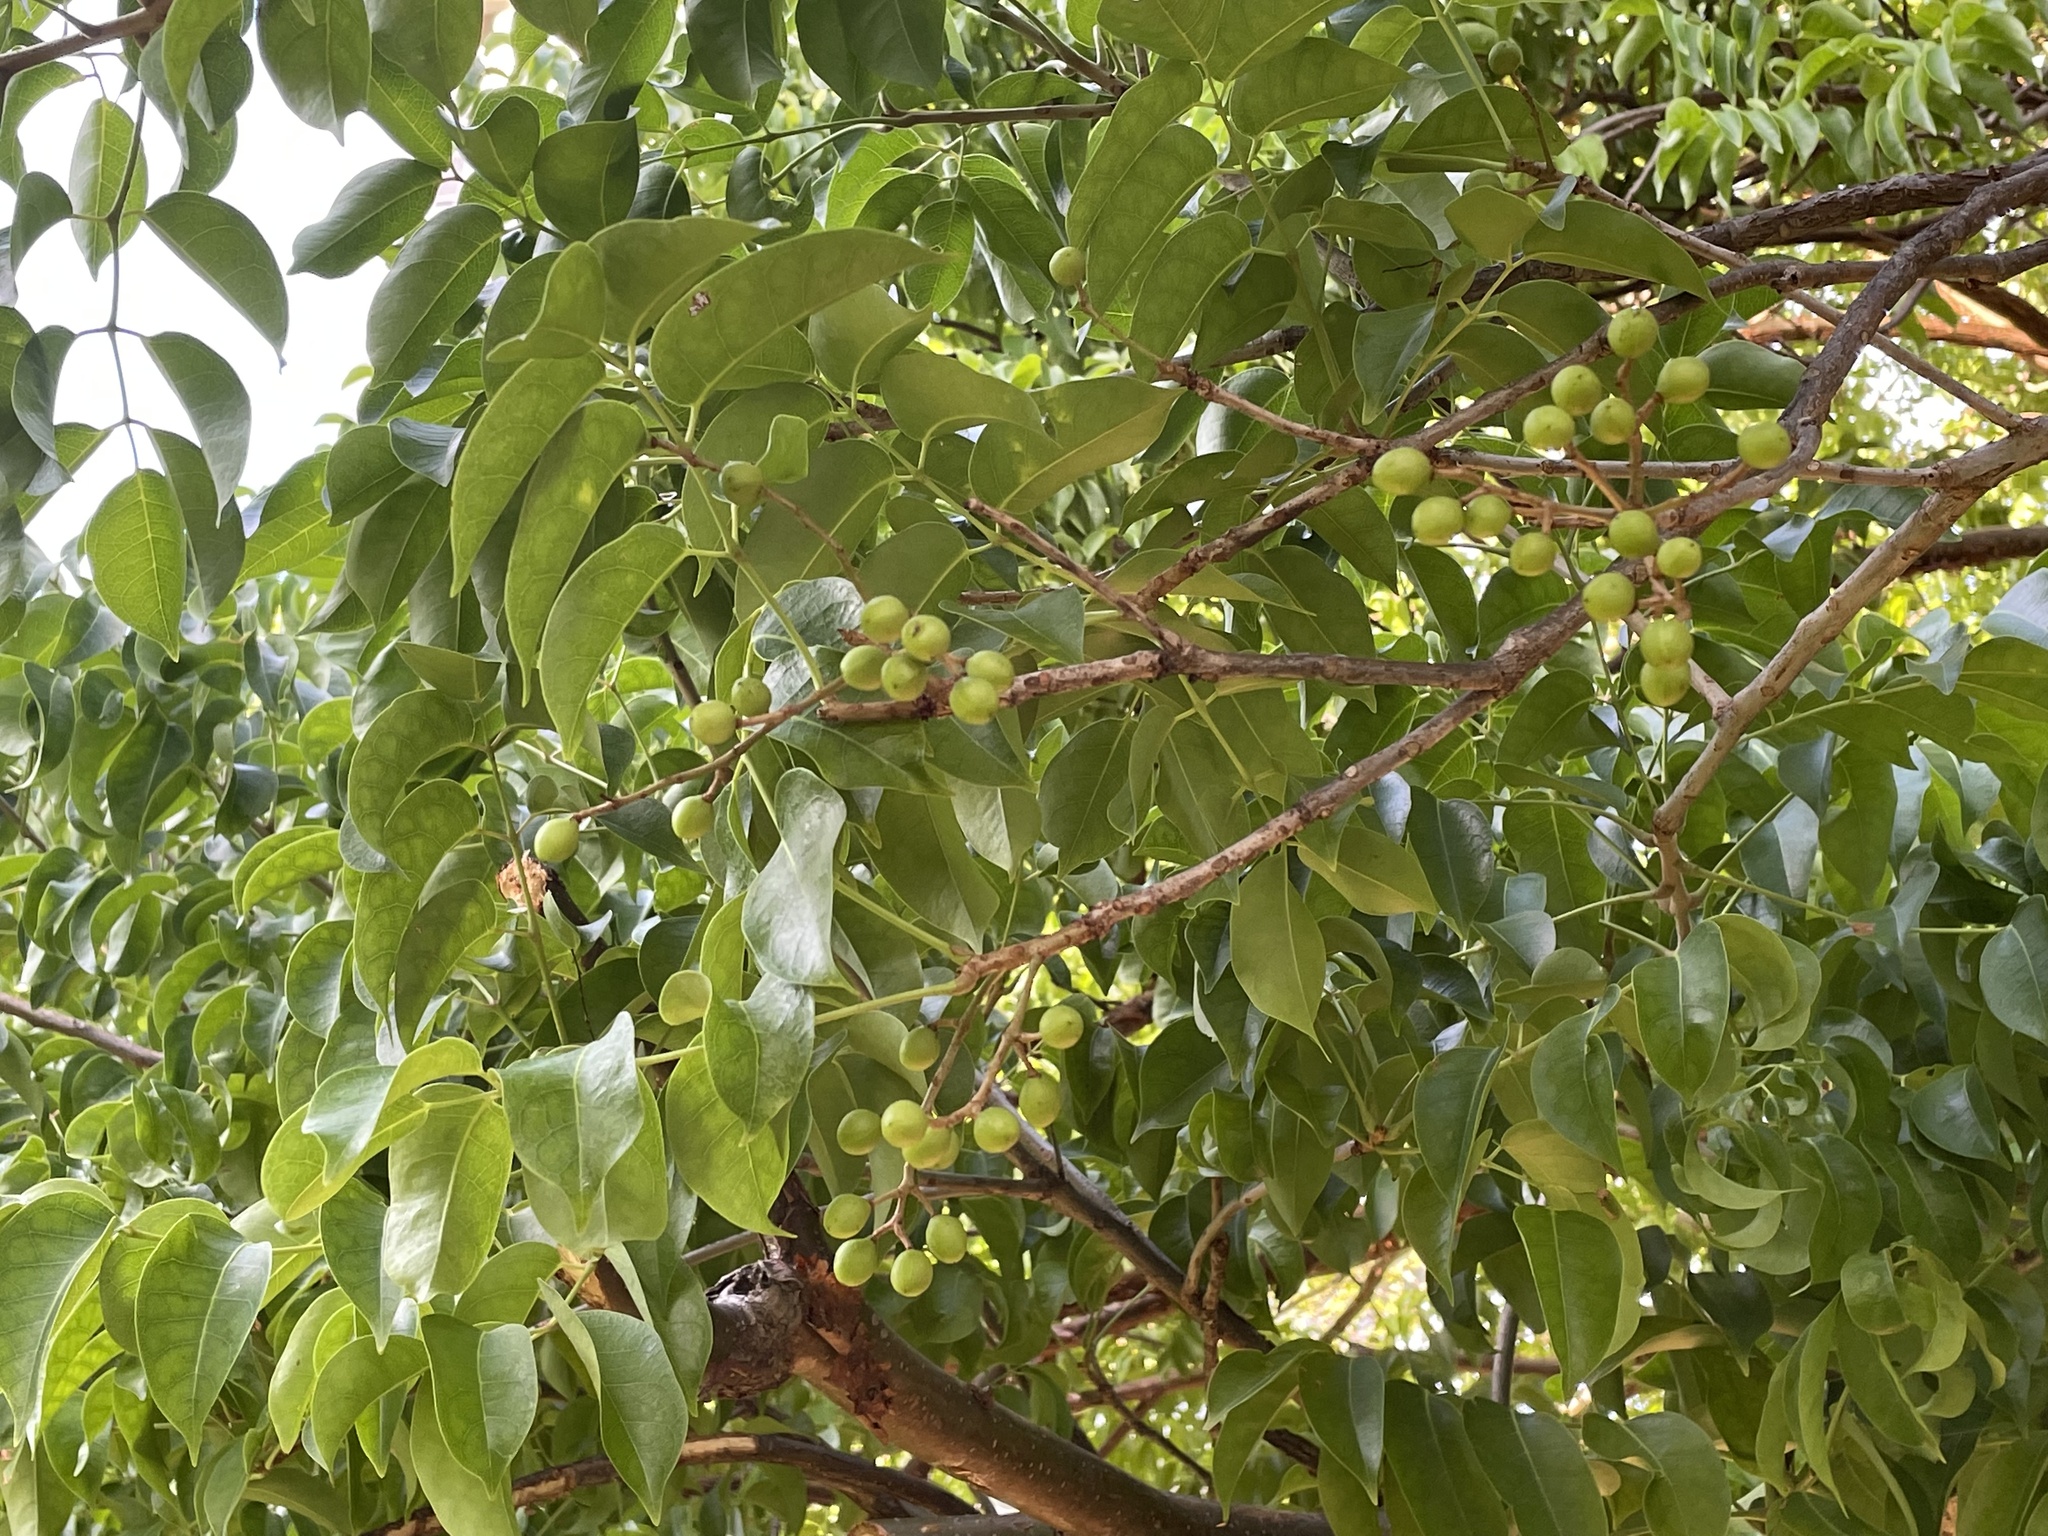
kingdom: Plantae
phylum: Tracheophyta
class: Magnoliopsida
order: Sapindales
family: Burseraceae
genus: Bursera
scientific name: Bursera simaruba
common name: Turpentine tree
